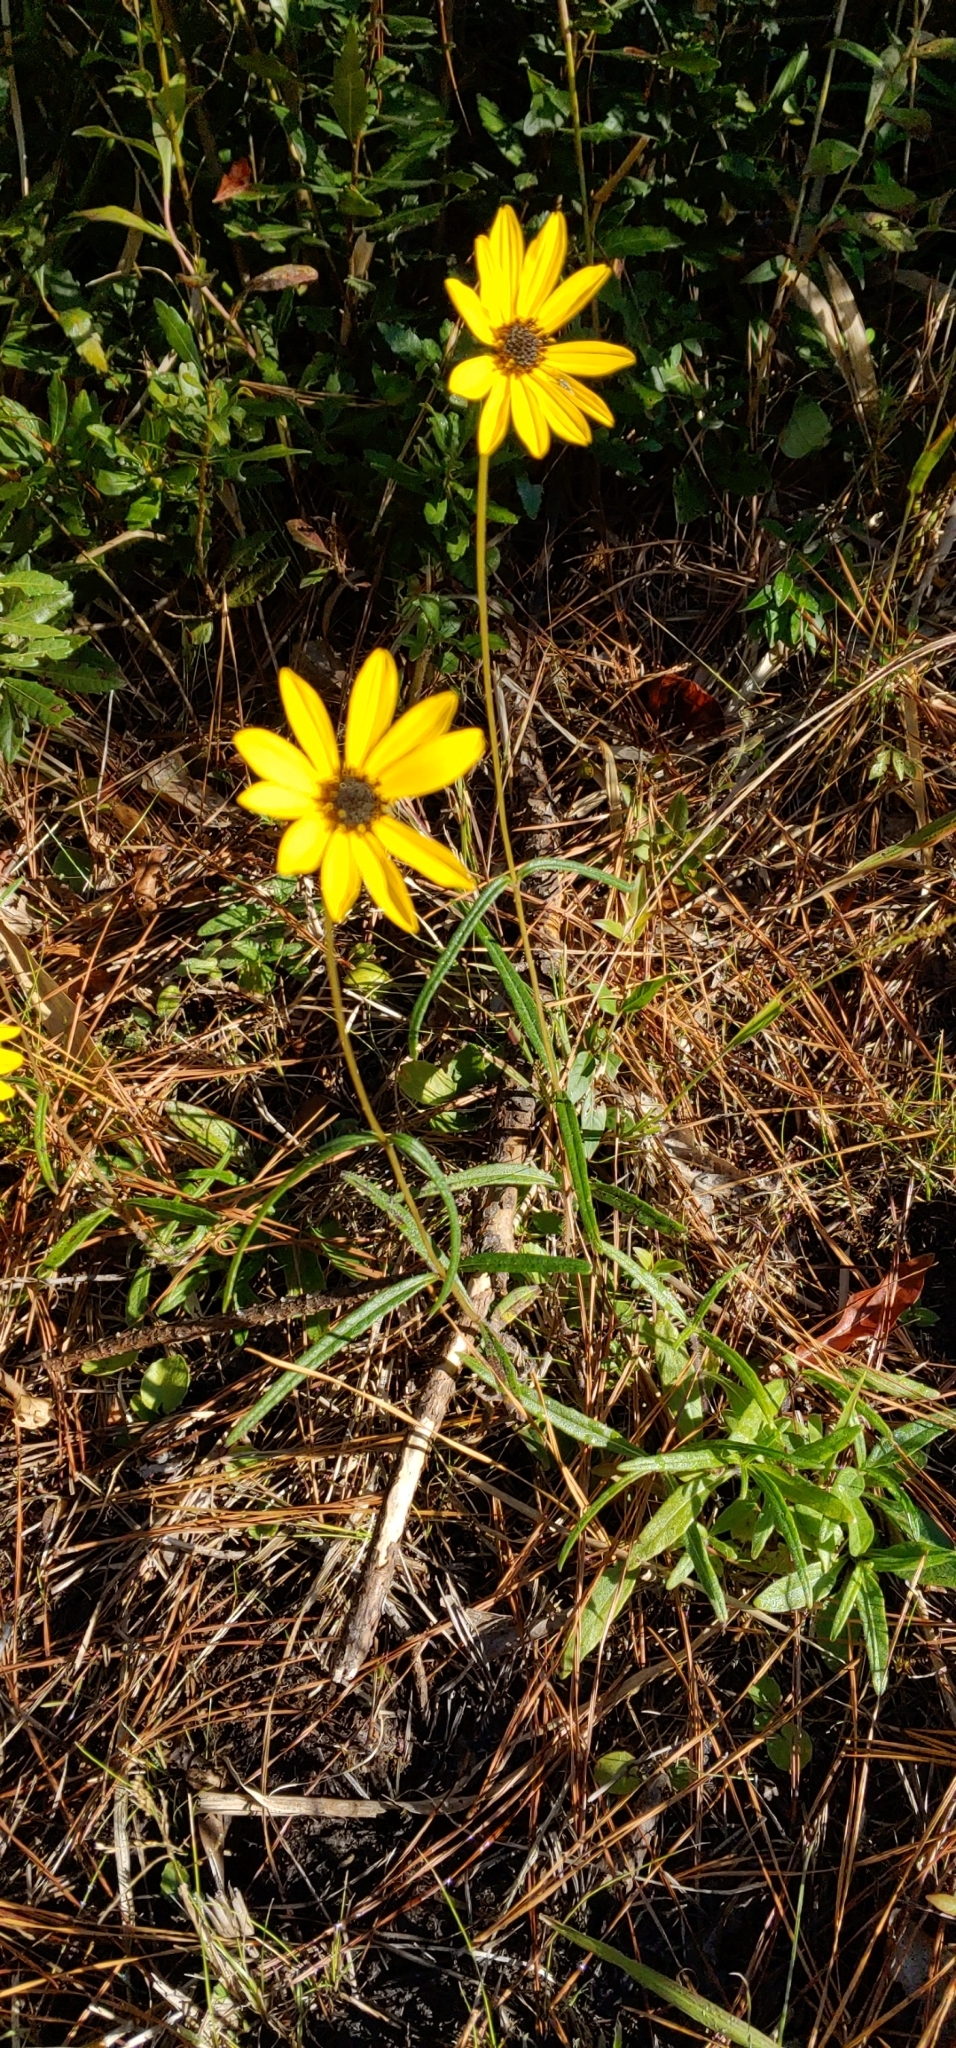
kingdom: Plantae
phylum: Tracheophyta
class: Magnoliopsida
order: Asterales
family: Asteraceae
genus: Helianthus
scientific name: Helianthus angustifolius
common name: Swamp sunflower
